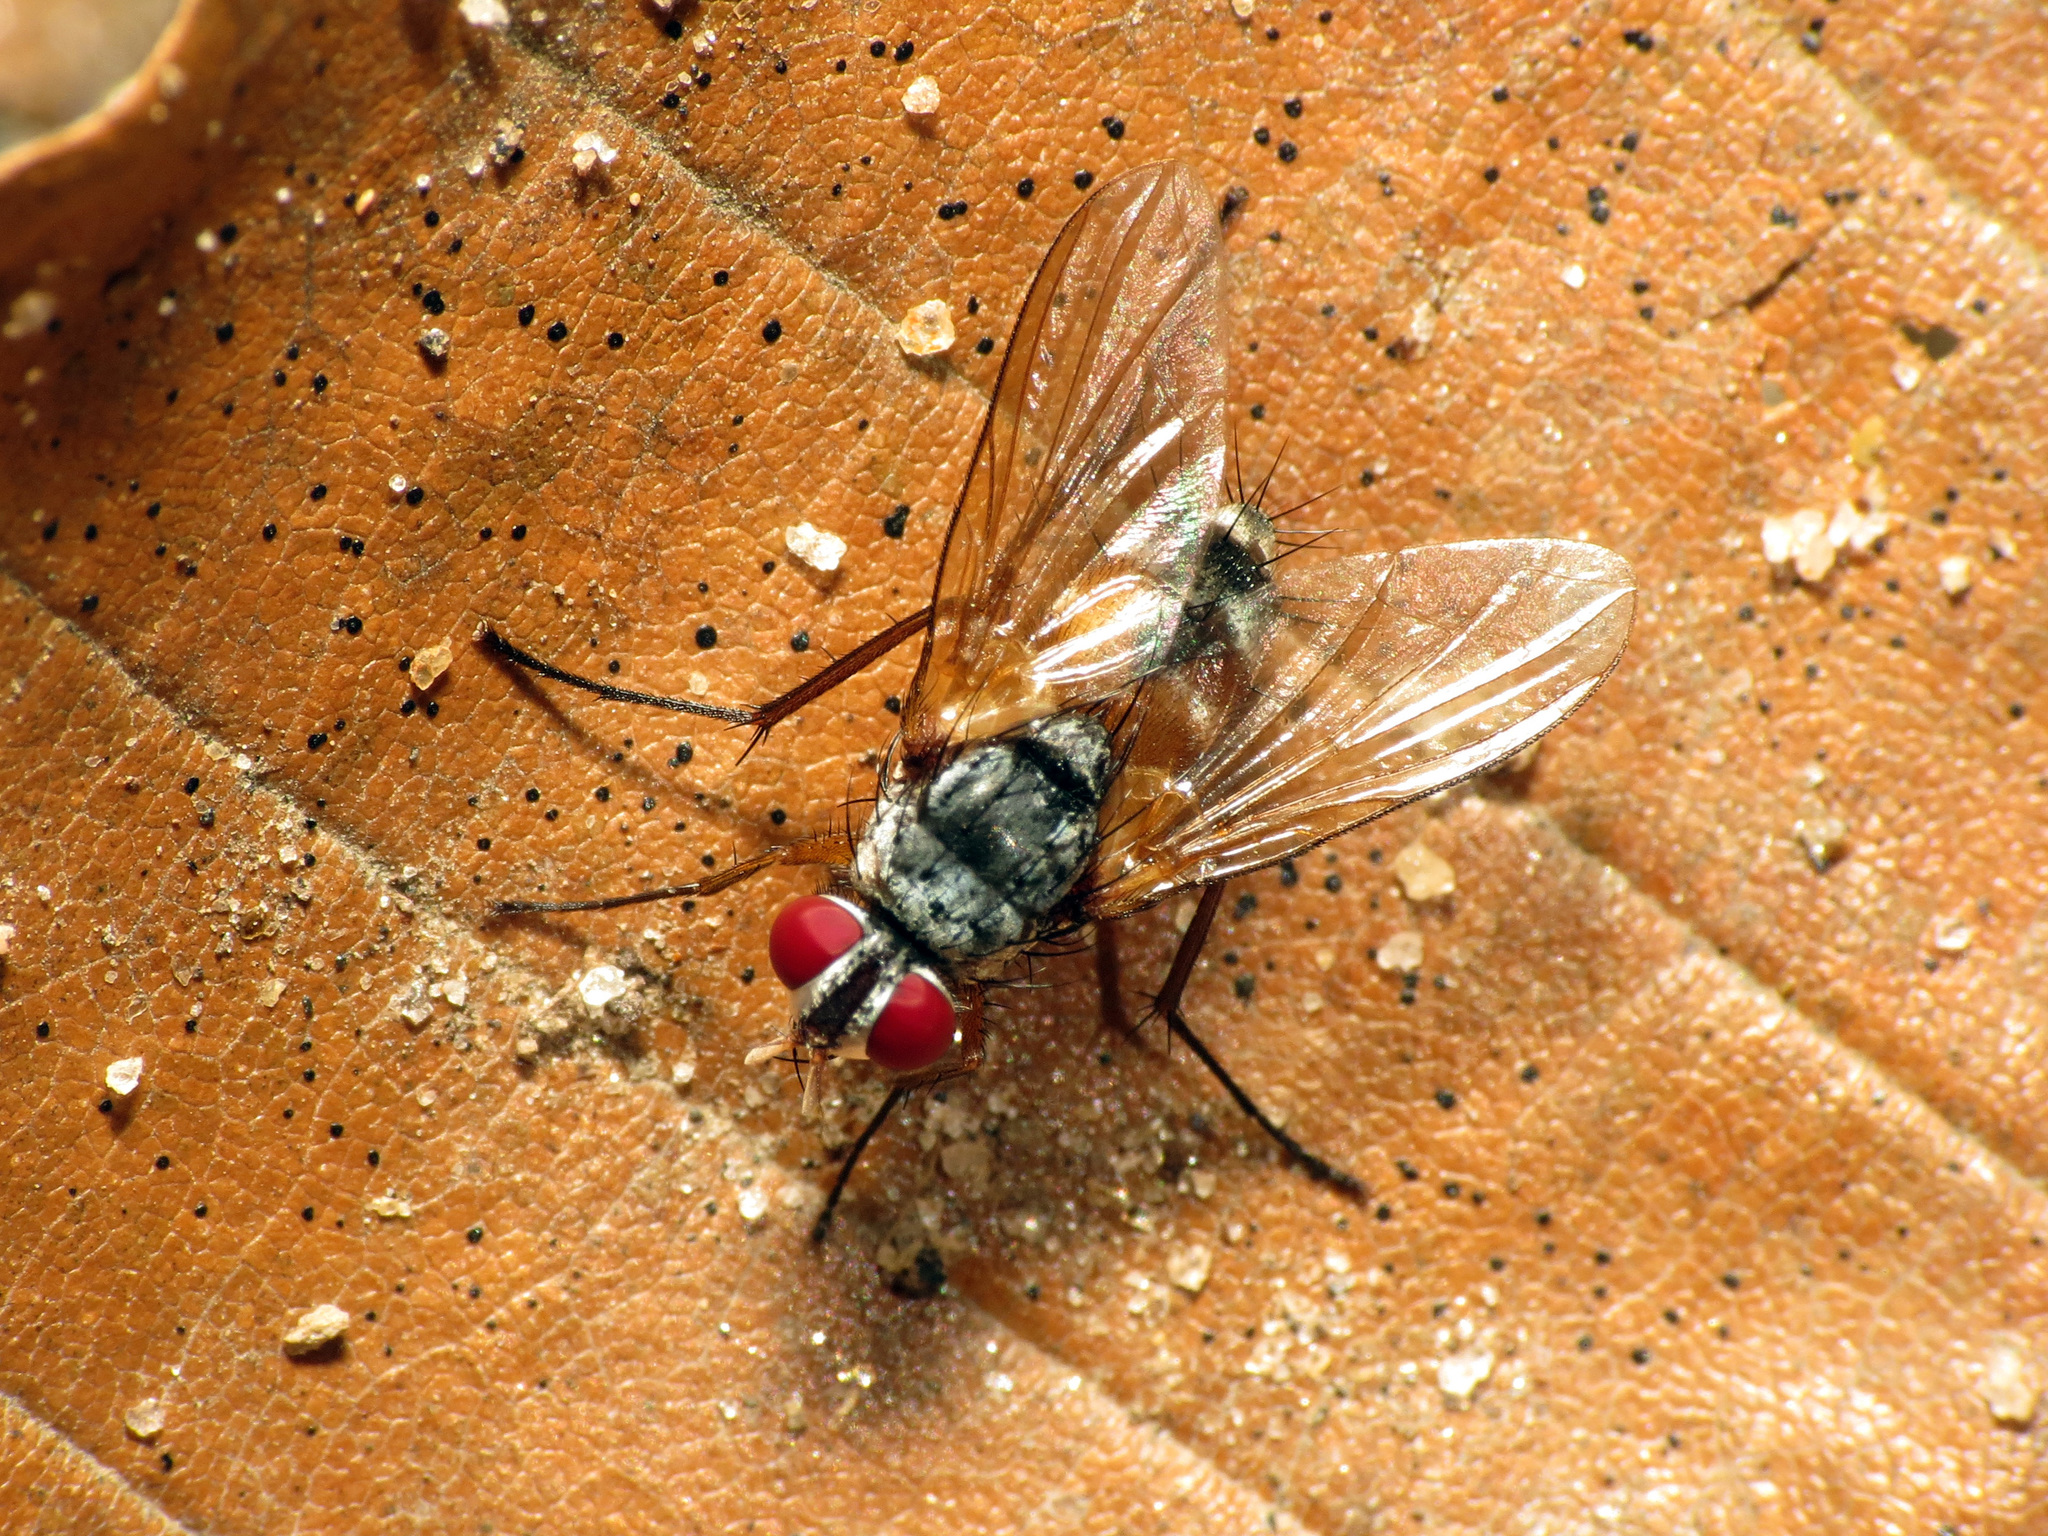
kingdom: Animalia
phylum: Arthropoda
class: Insecta
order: Diptera
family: Tachinidae
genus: Cholomyia
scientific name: Cholomyia inaequipes
